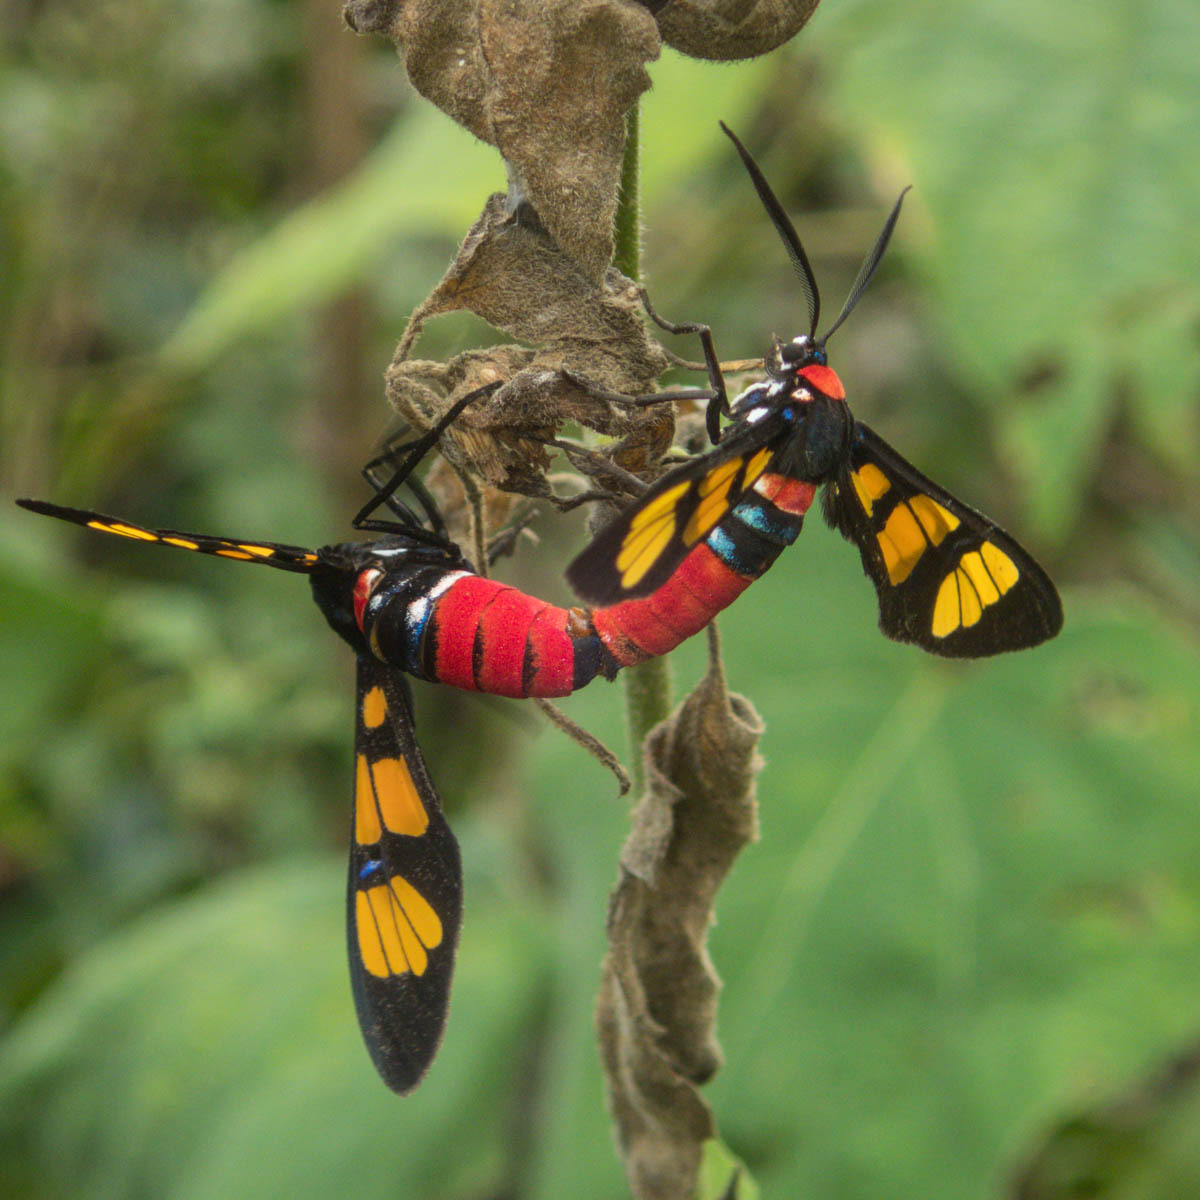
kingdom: Animalia
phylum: Arthropoda
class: Insecta
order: Lepidoptera
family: Erebidae
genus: Euchromia
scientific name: Euchromia polymena
